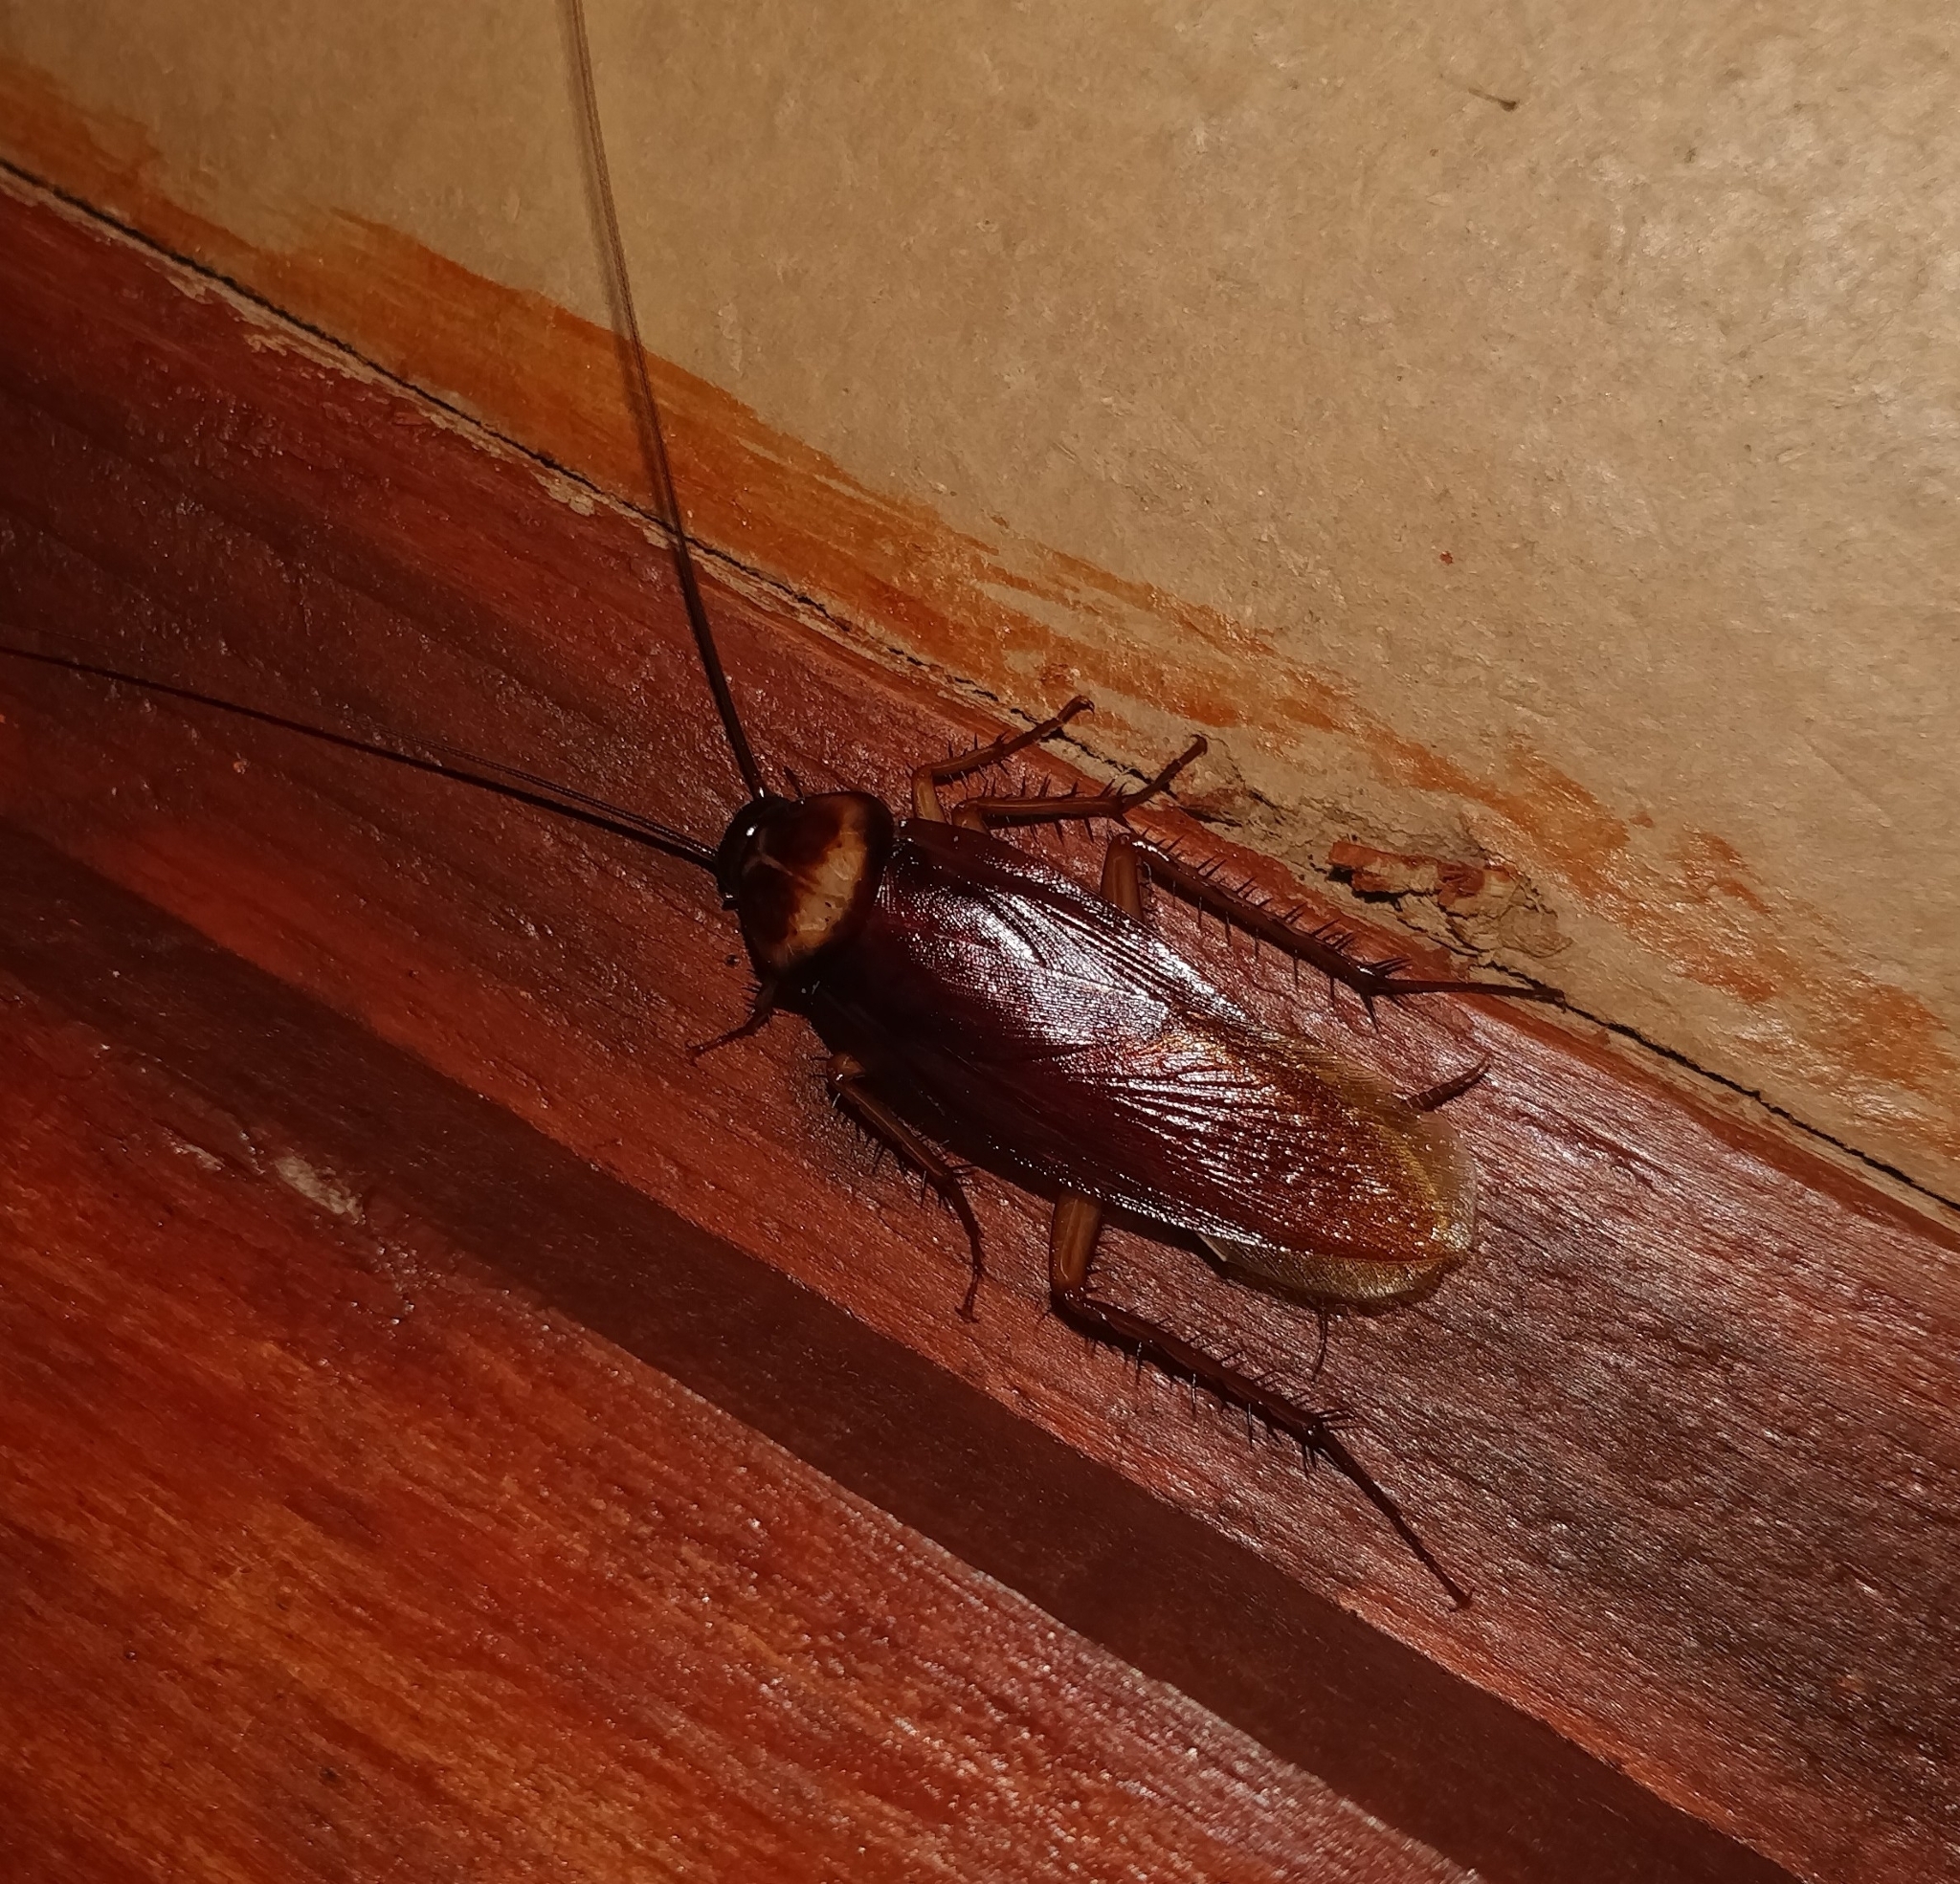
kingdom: Animalia
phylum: Arthropoda
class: Insecta
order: Blattodea
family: Blattidae
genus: Periplaneta
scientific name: Periplaneta americana
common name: American cockroach
